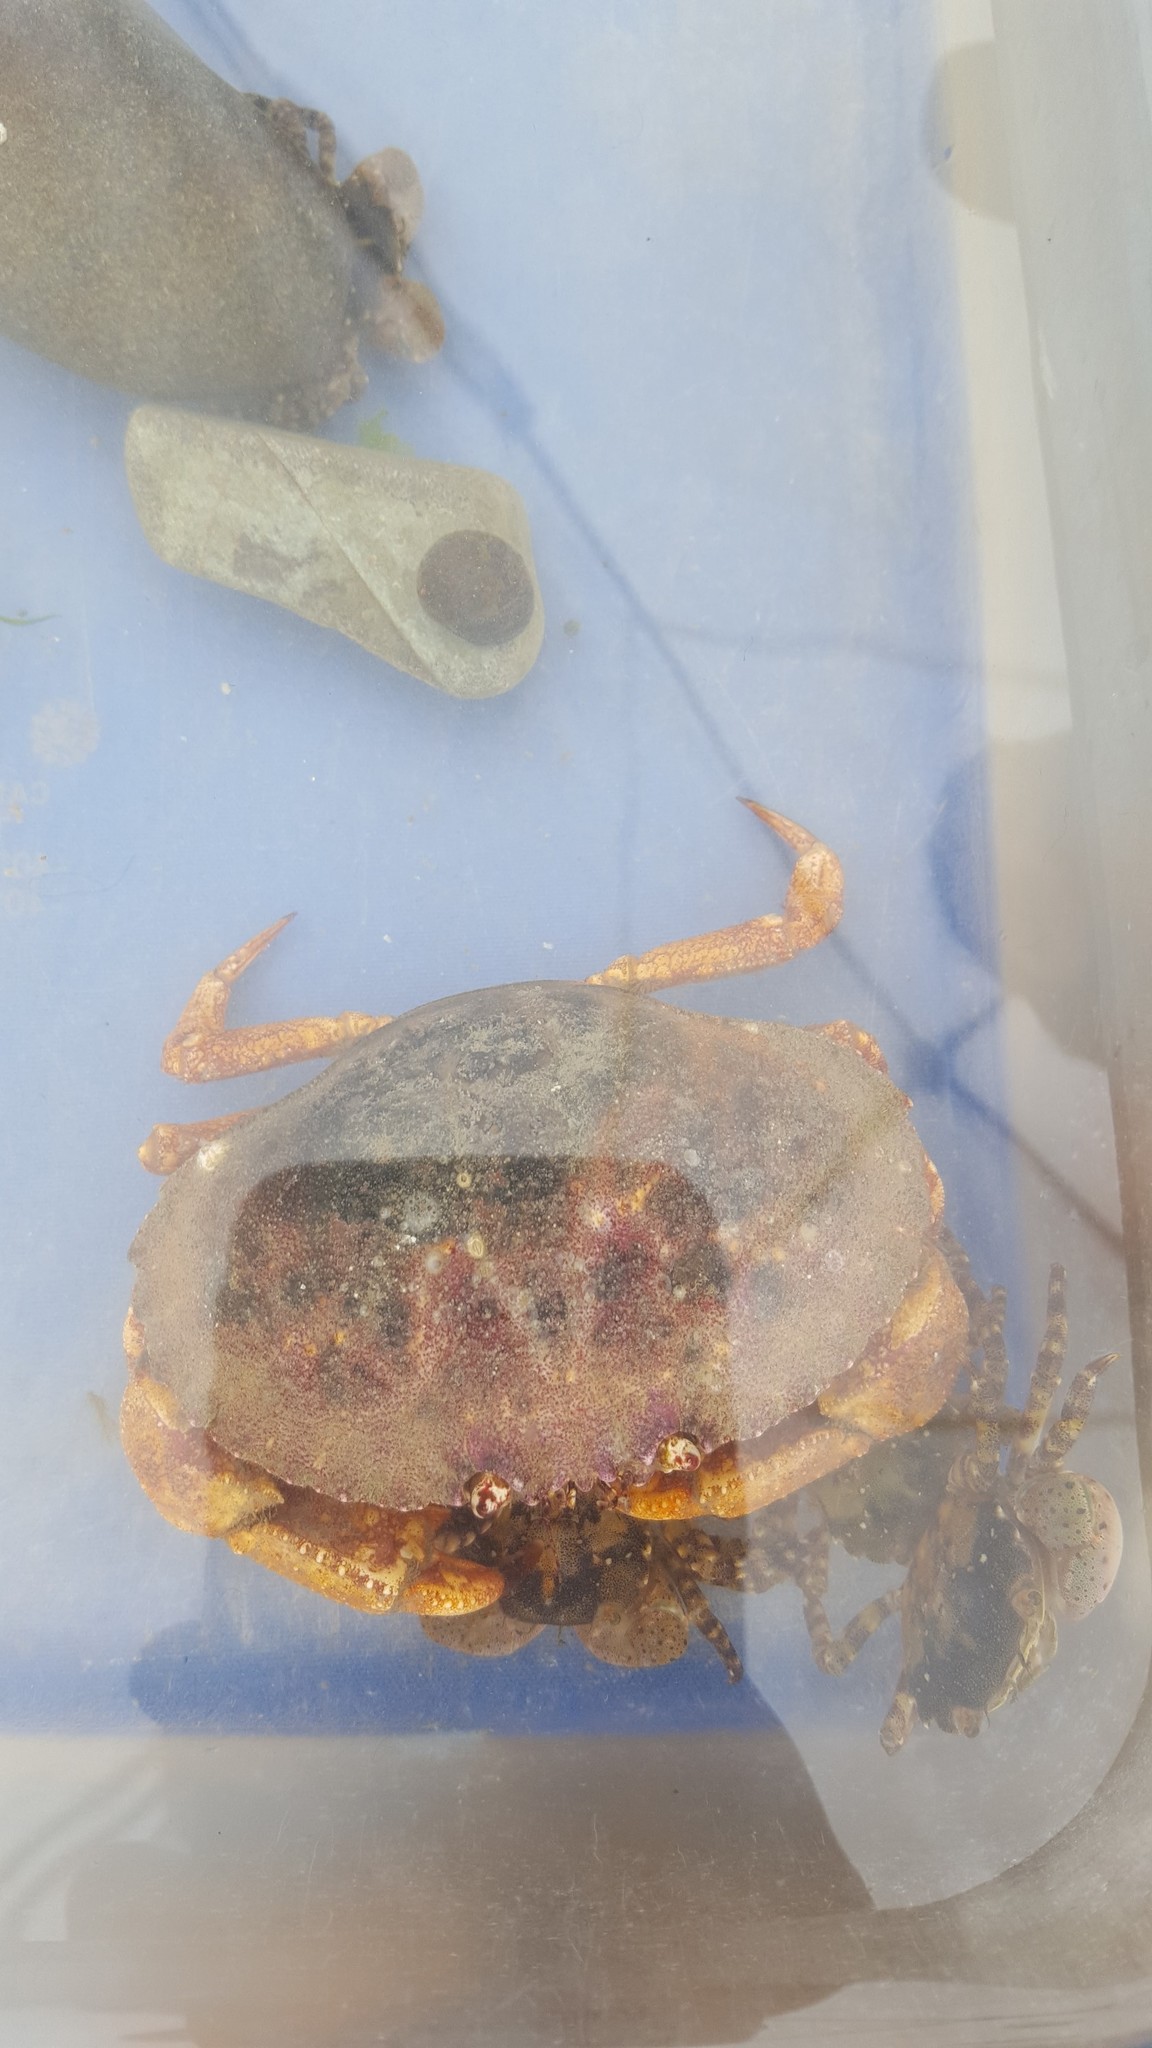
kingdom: Animalia
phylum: Arthropoda
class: Malacostraca
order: Decapoda
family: Cancridae
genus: Cancer
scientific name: Cancer borealis
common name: Jonah crab
